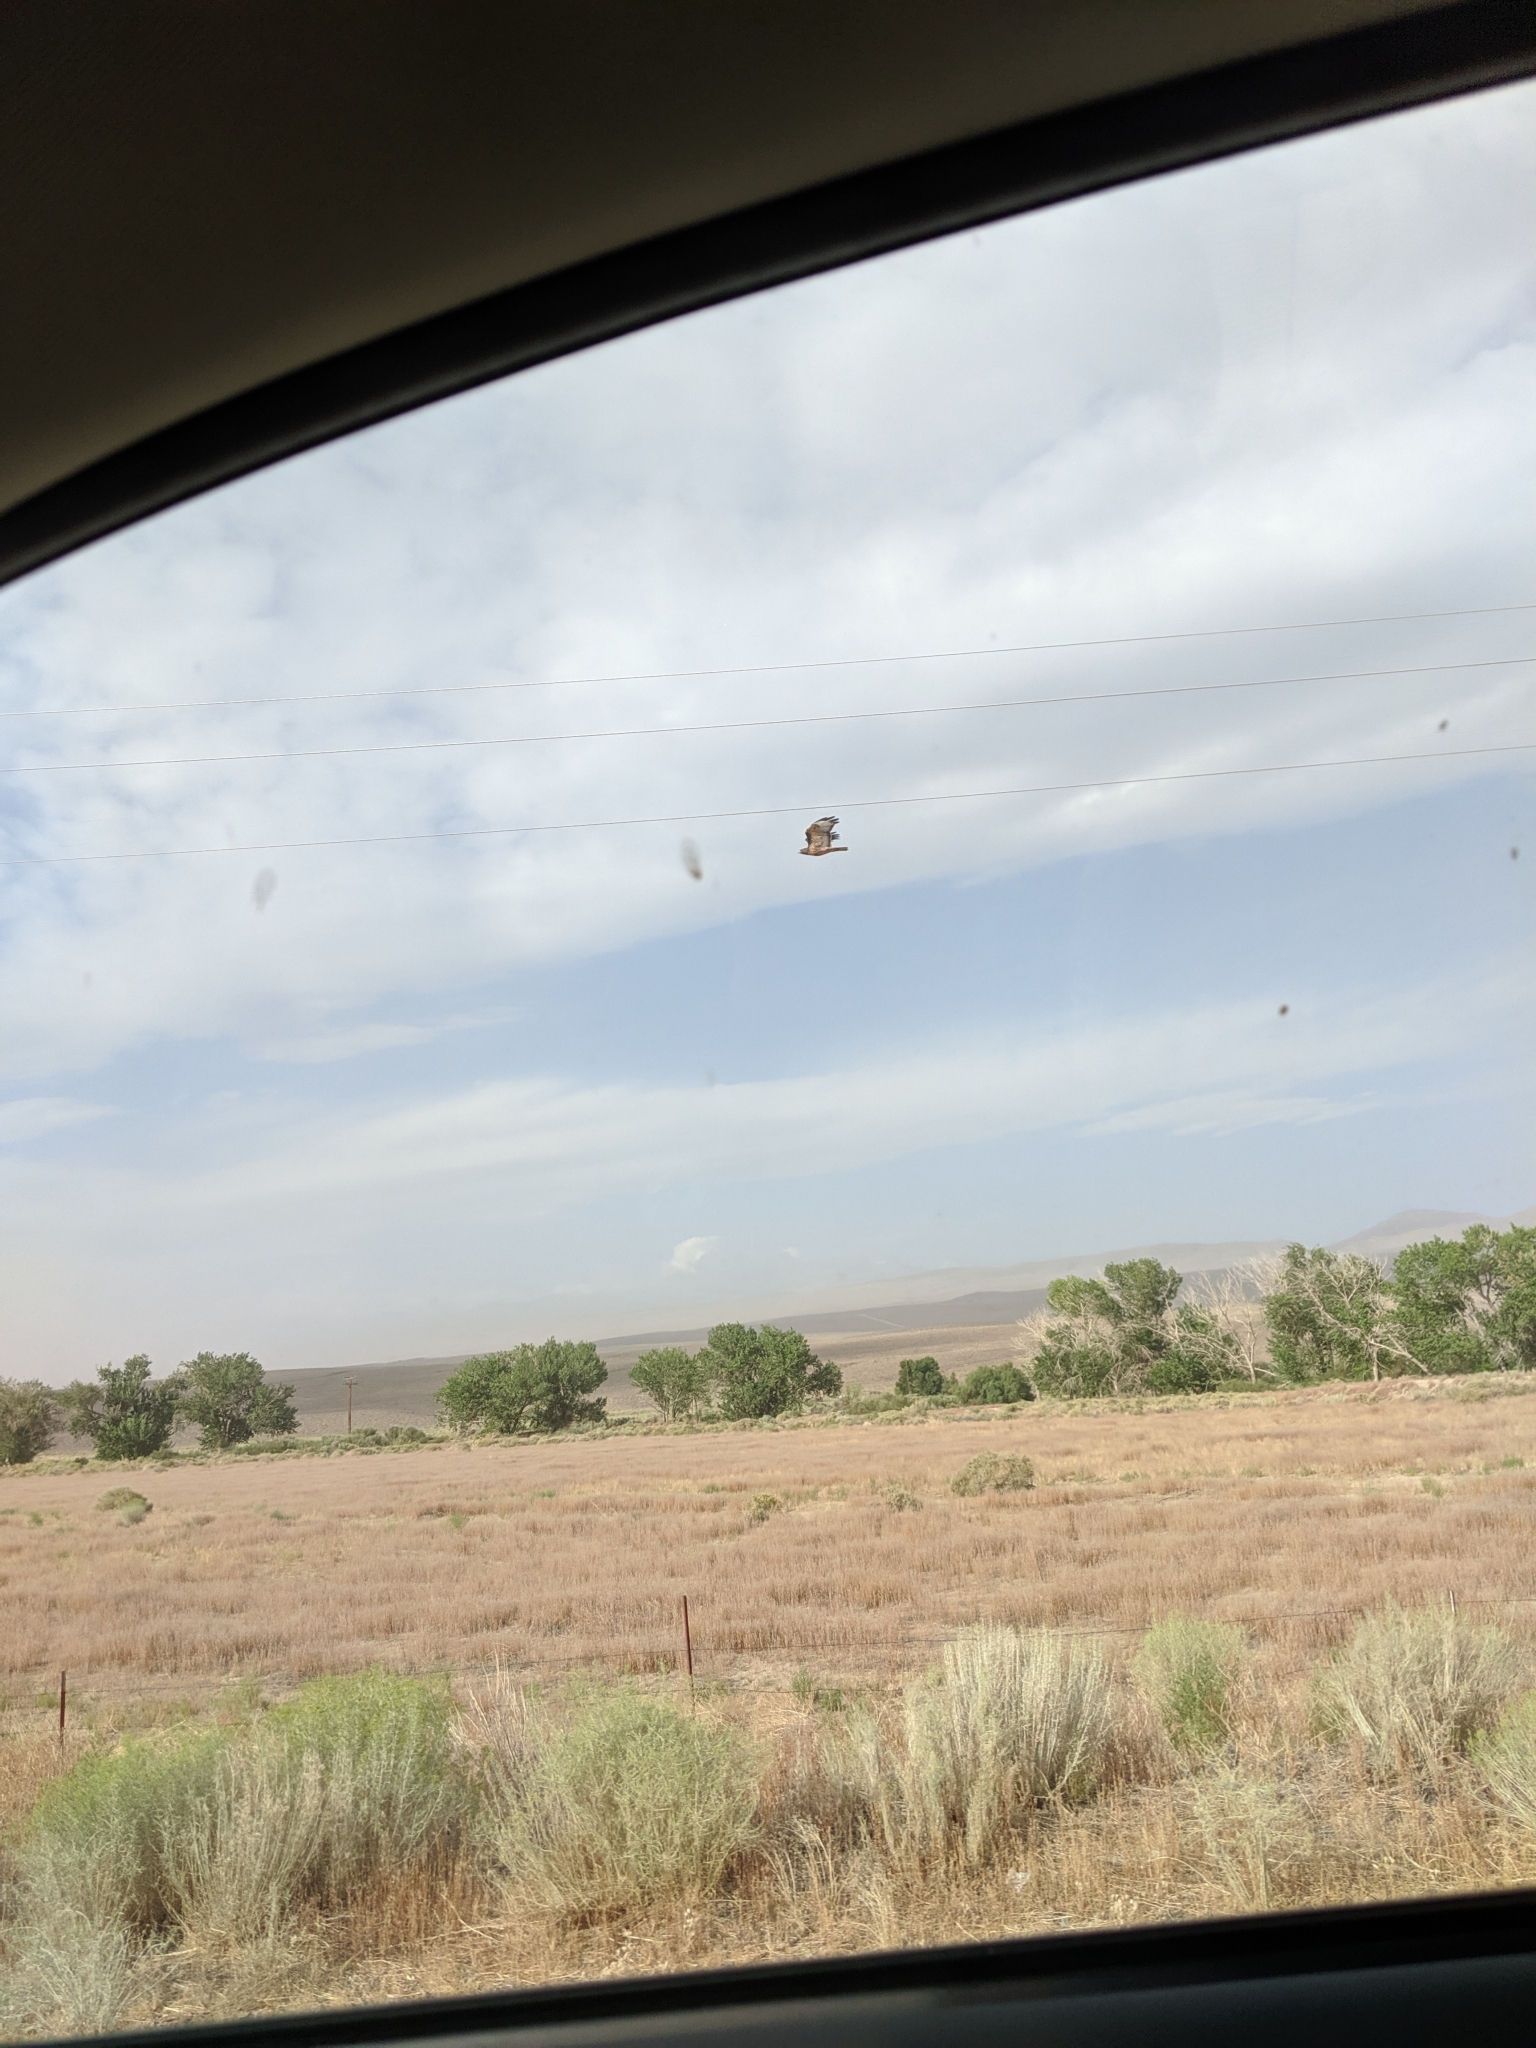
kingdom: Animalia
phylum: Chordata
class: Aves
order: Accipitriformes
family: Accipitridae
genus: Buteo
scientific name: Buteo jamaicensis
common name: Red-tailed hawk
